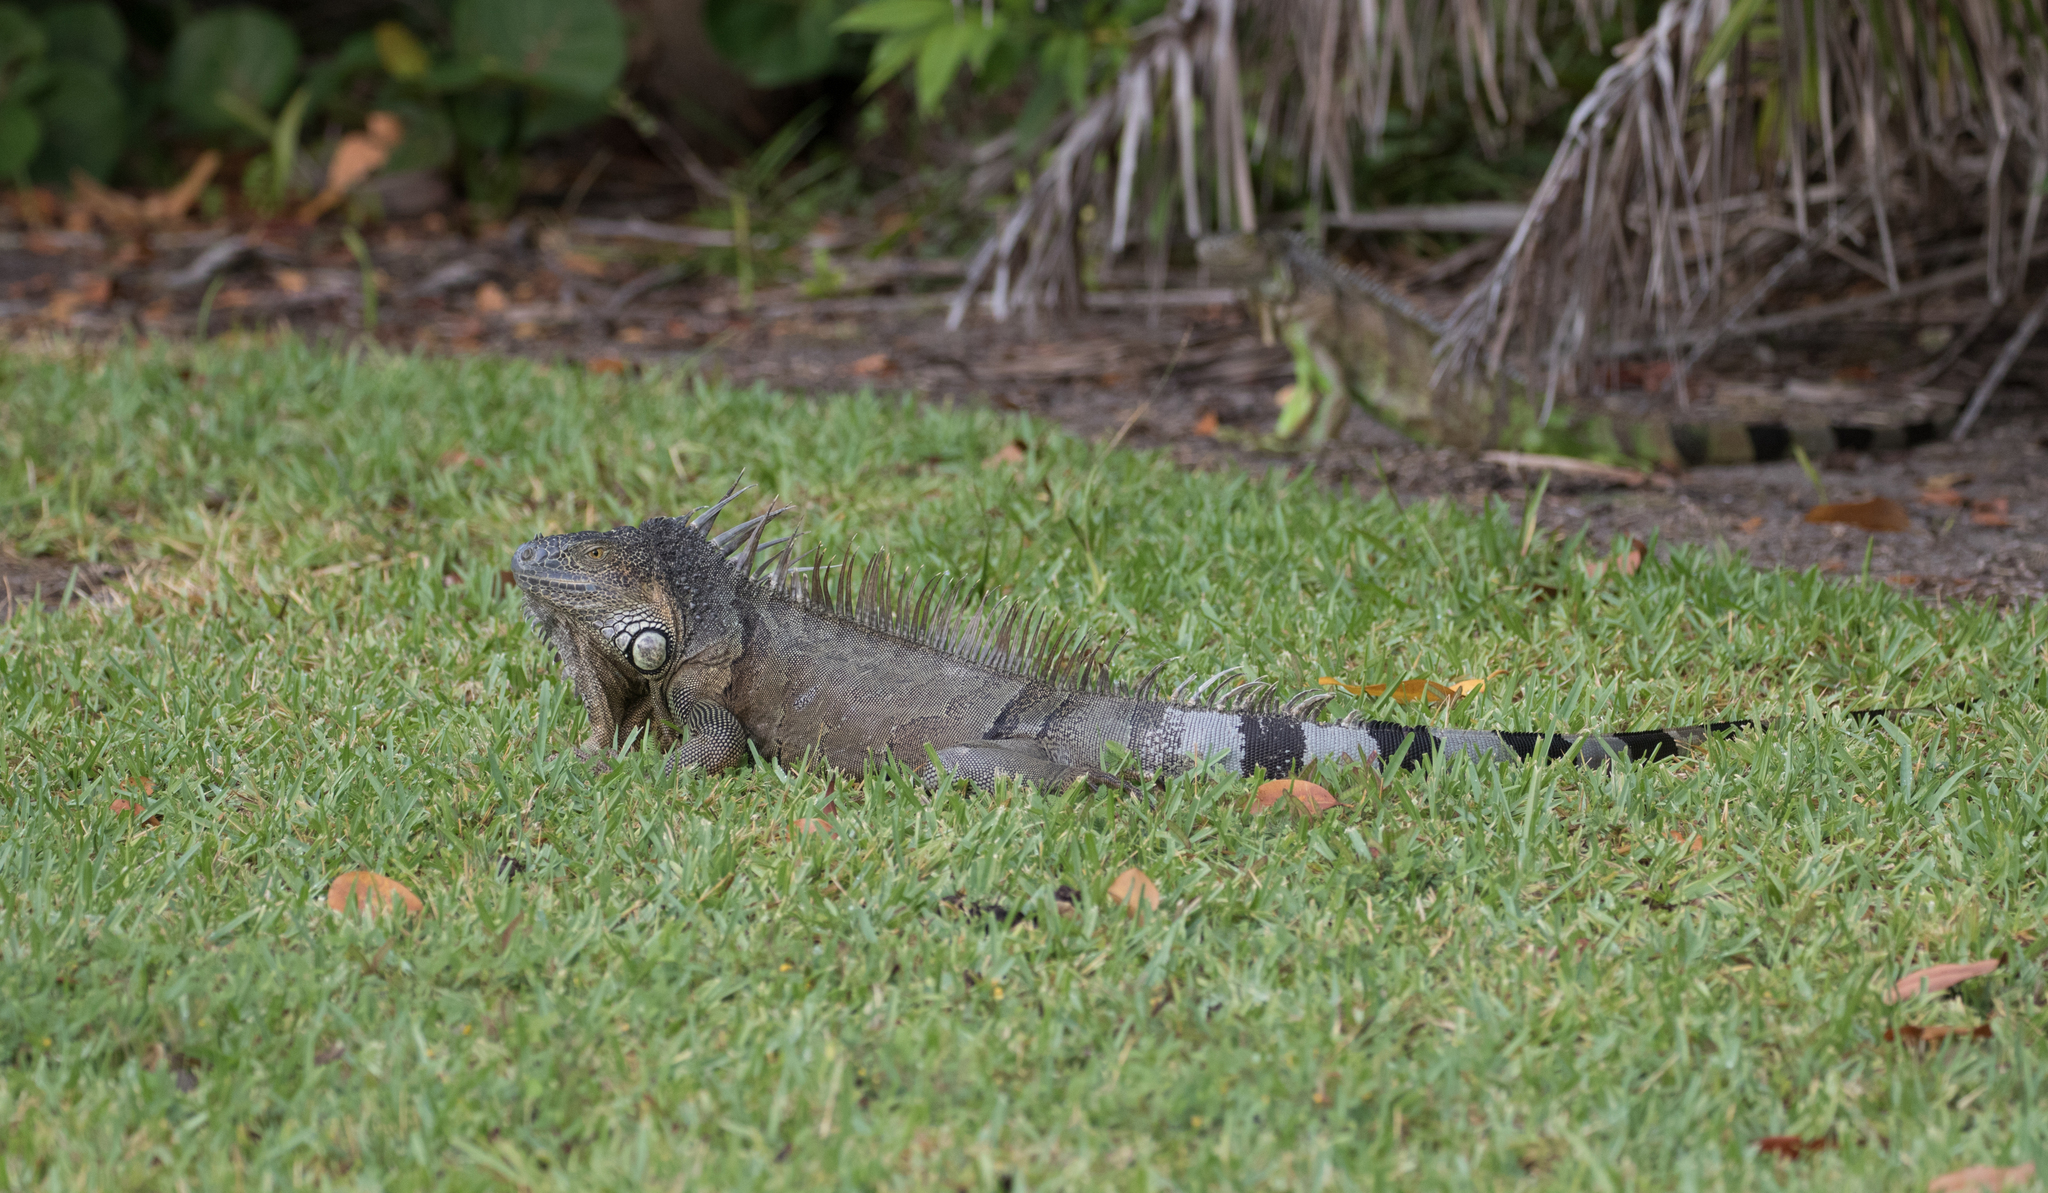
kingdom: Animalia
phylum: Chordata
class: Squamata
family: Iguanidae
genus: Iguana
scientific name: Iguana iguana
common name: Green iguana
